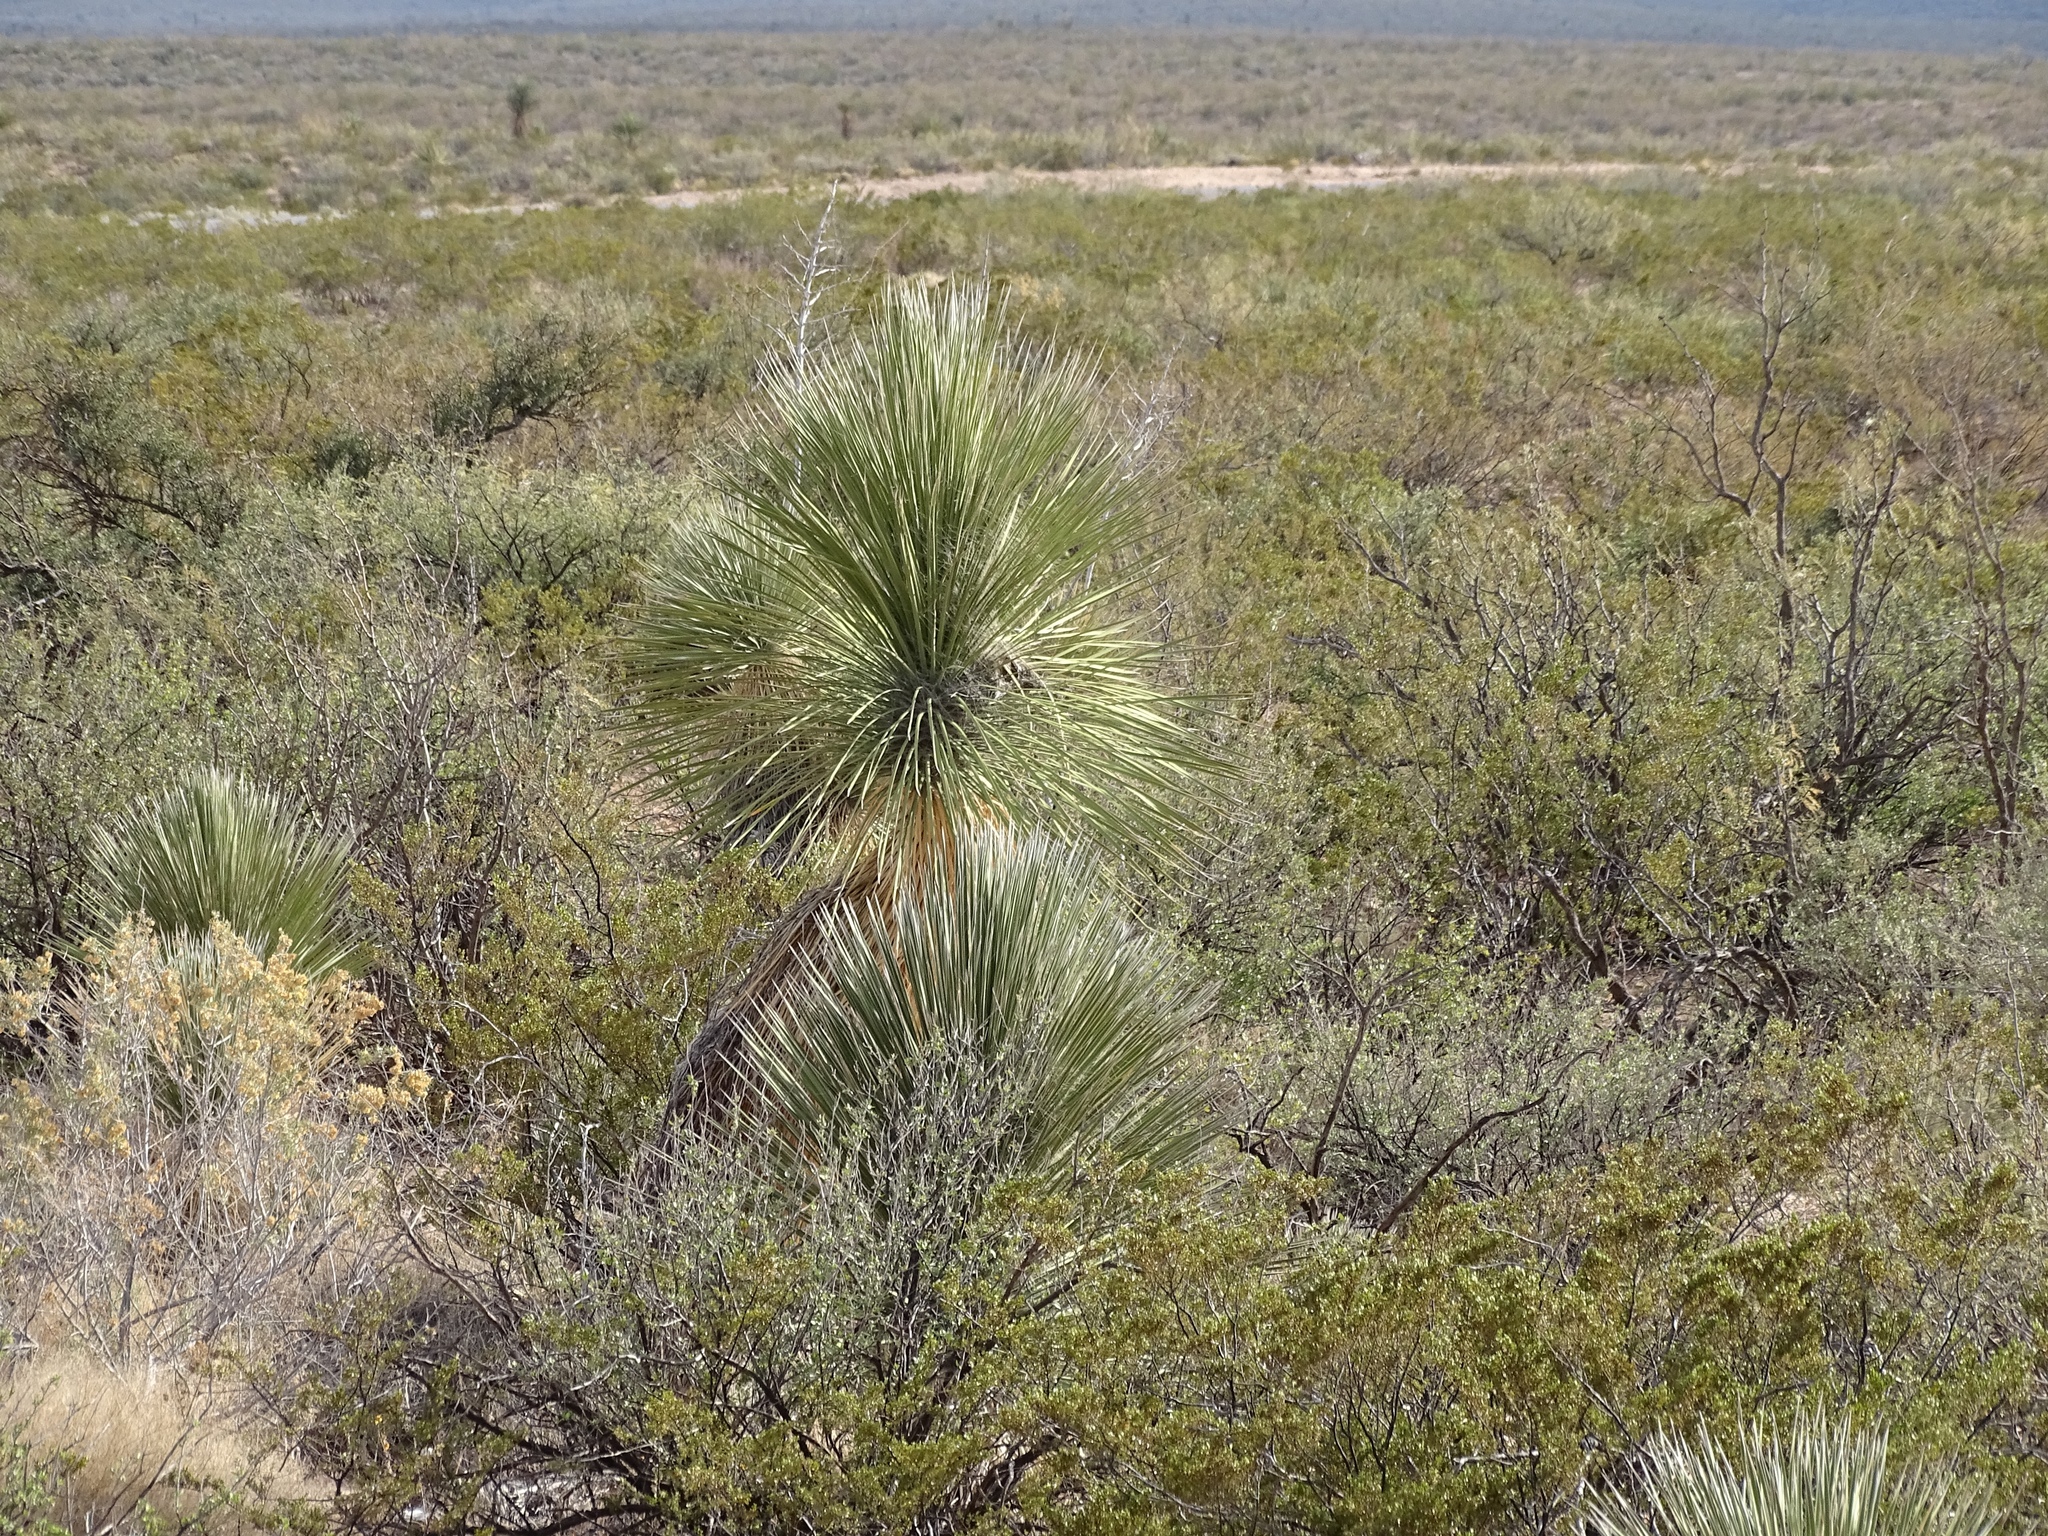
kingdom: Plantae
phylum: Tracheophyta
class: Liliopsida
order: Asparagales
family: Asparagaceae
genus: Yucca
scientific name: Yucca elata
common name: Palmella
